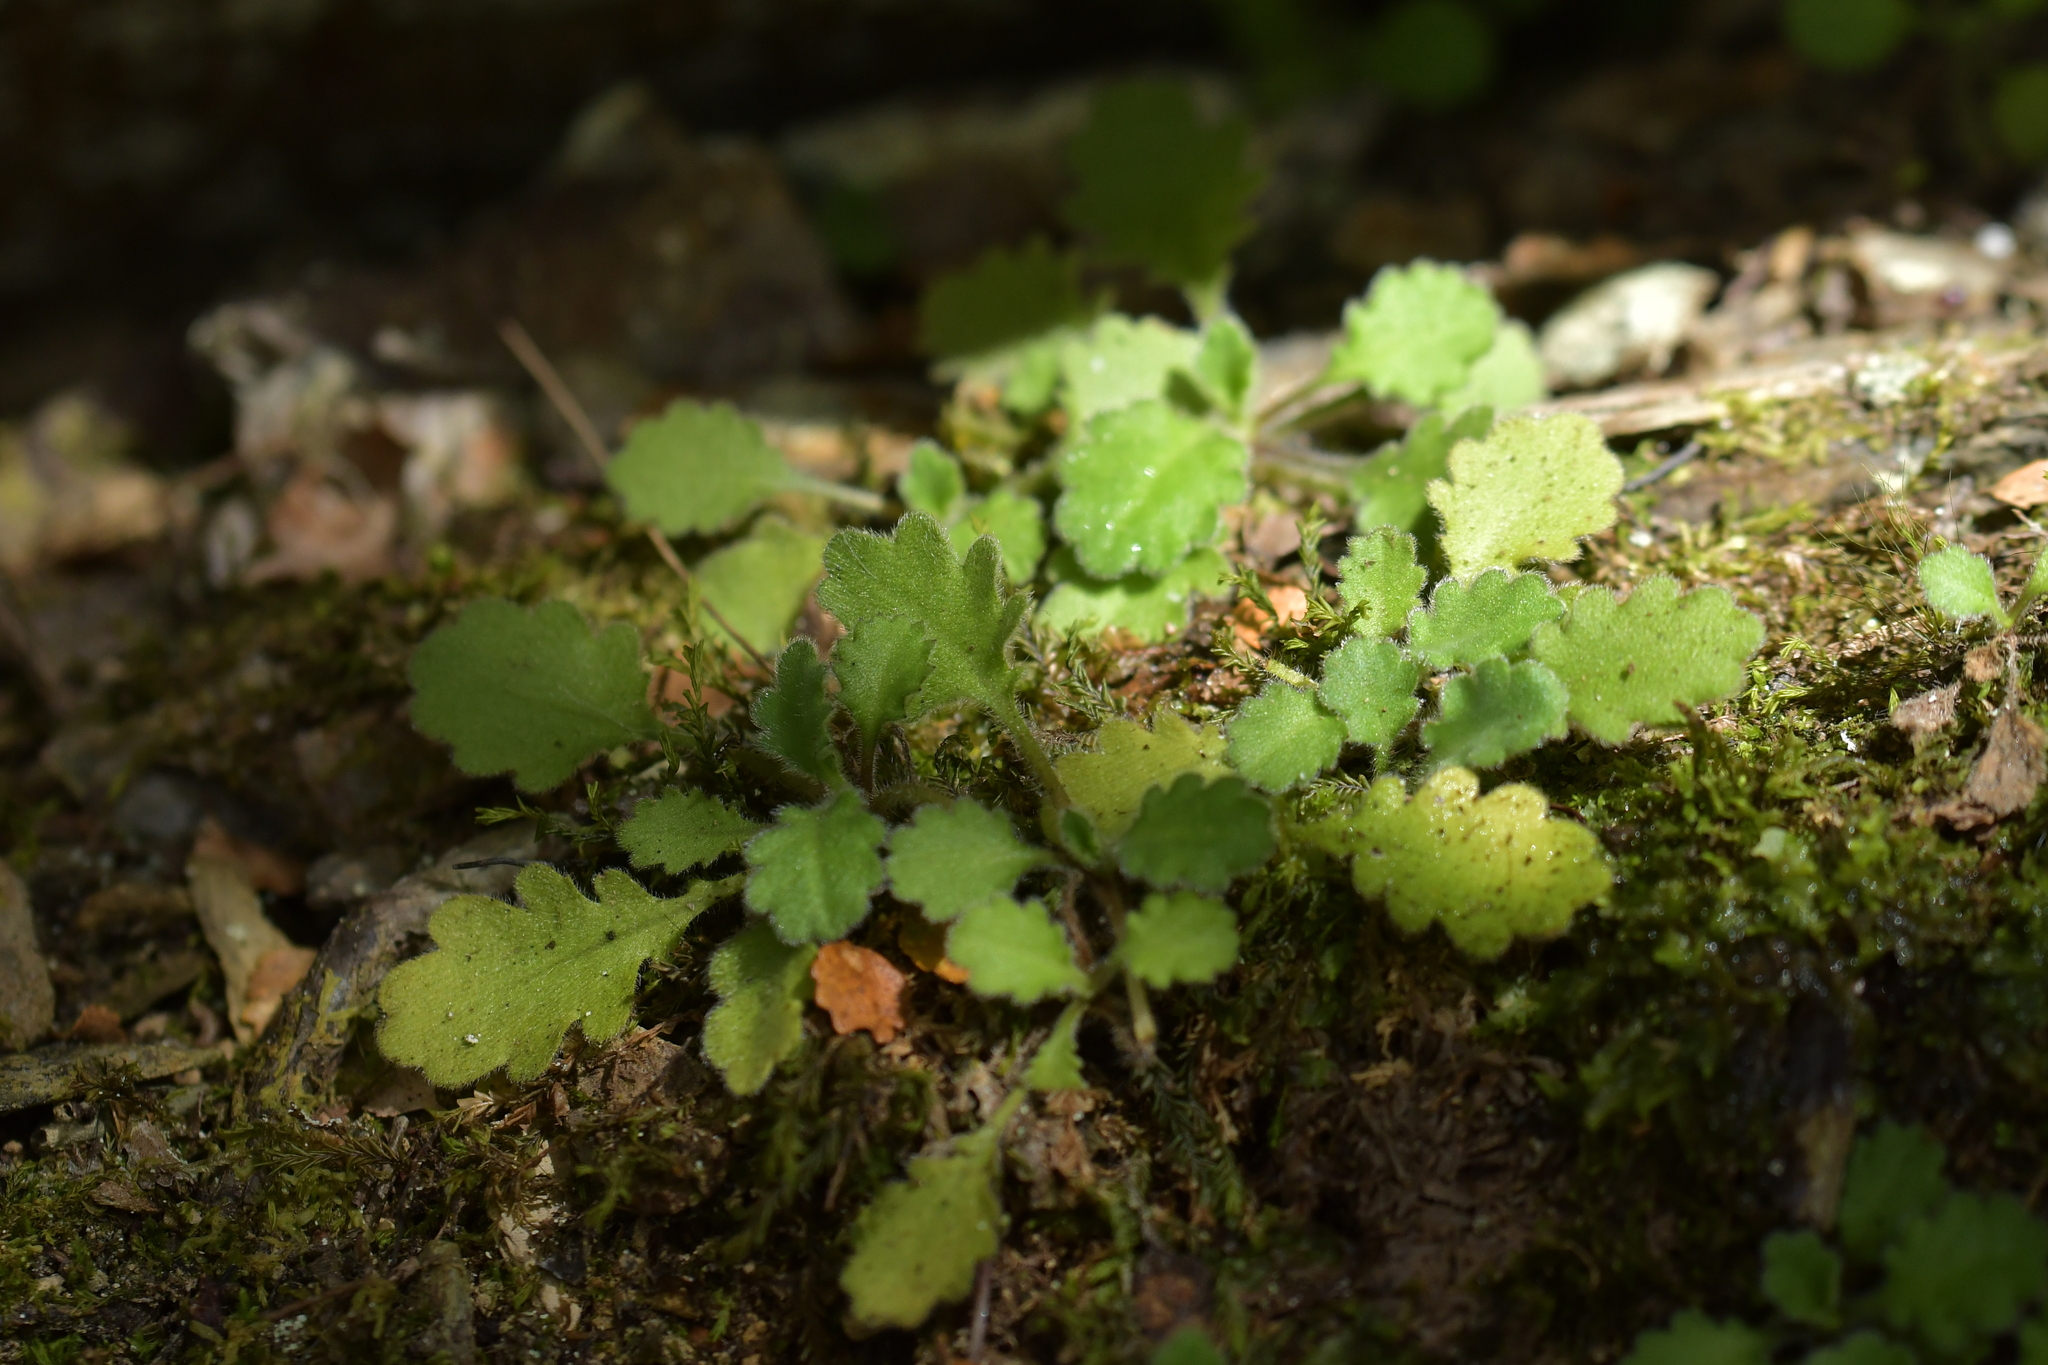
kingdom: Plantae
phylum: Tracheophyta
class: Magnoliopsida
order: Asterales
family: Asteraceae
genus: Lagenophora
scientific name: Lagenophora pinnatifida
